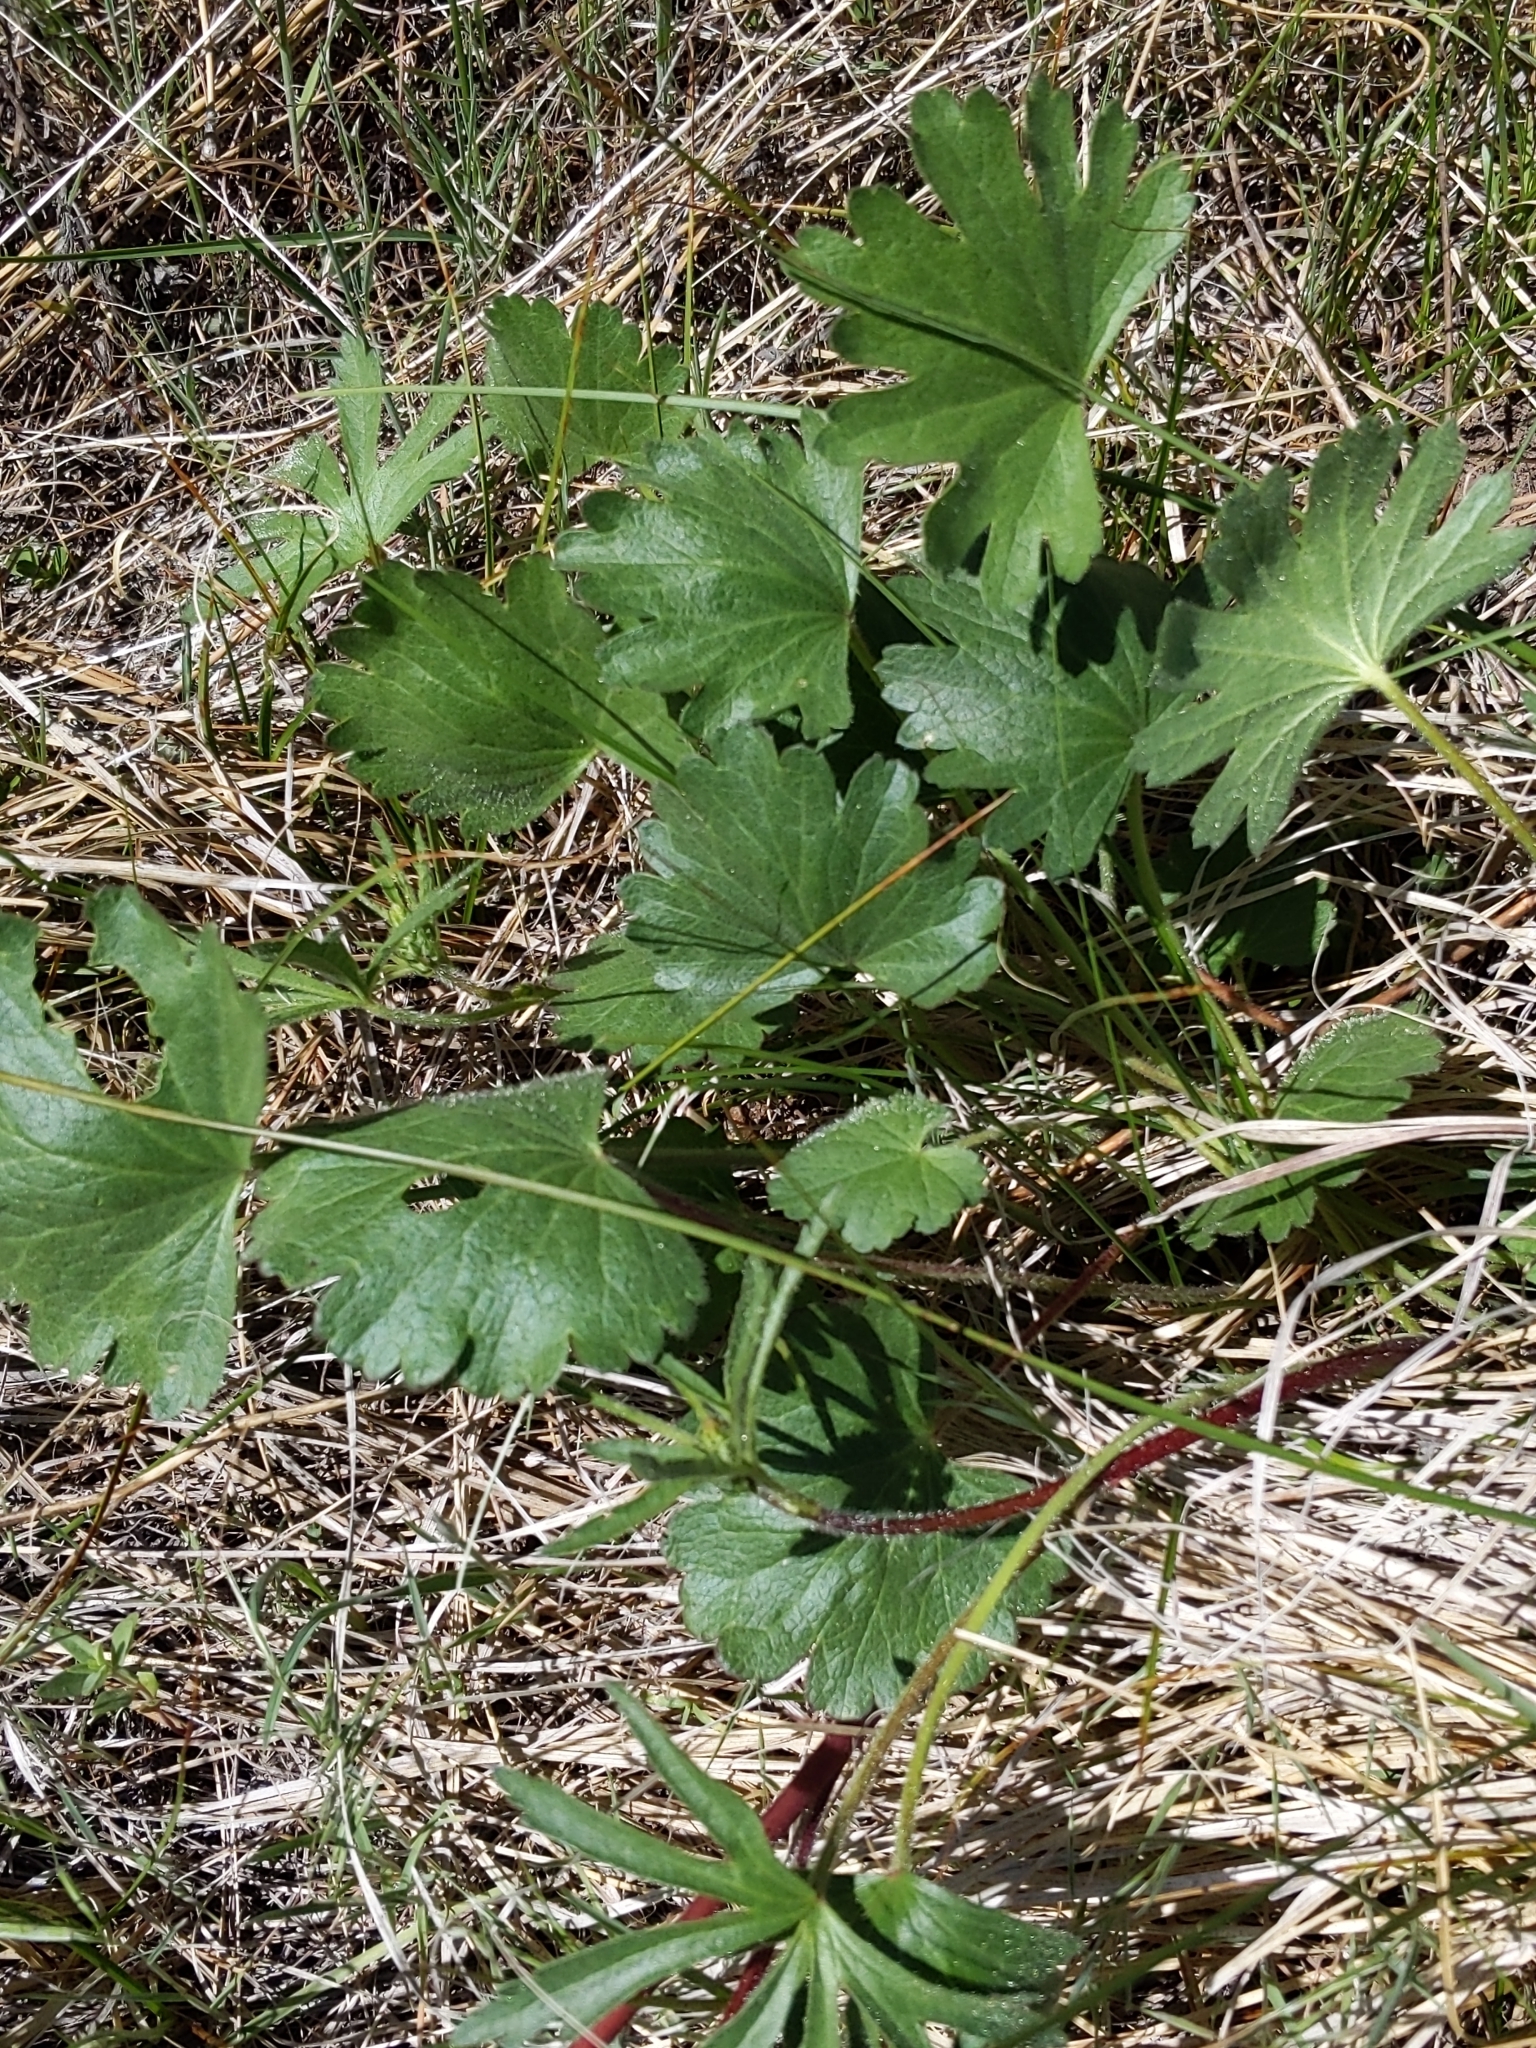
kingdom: Plantae
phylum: Tracheophyta
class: Magnoliopsida
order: Malvales
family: Malvaceae
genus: Sidalcea
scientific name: Sidalcea sparsifolia
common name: Southern checkerbloom
